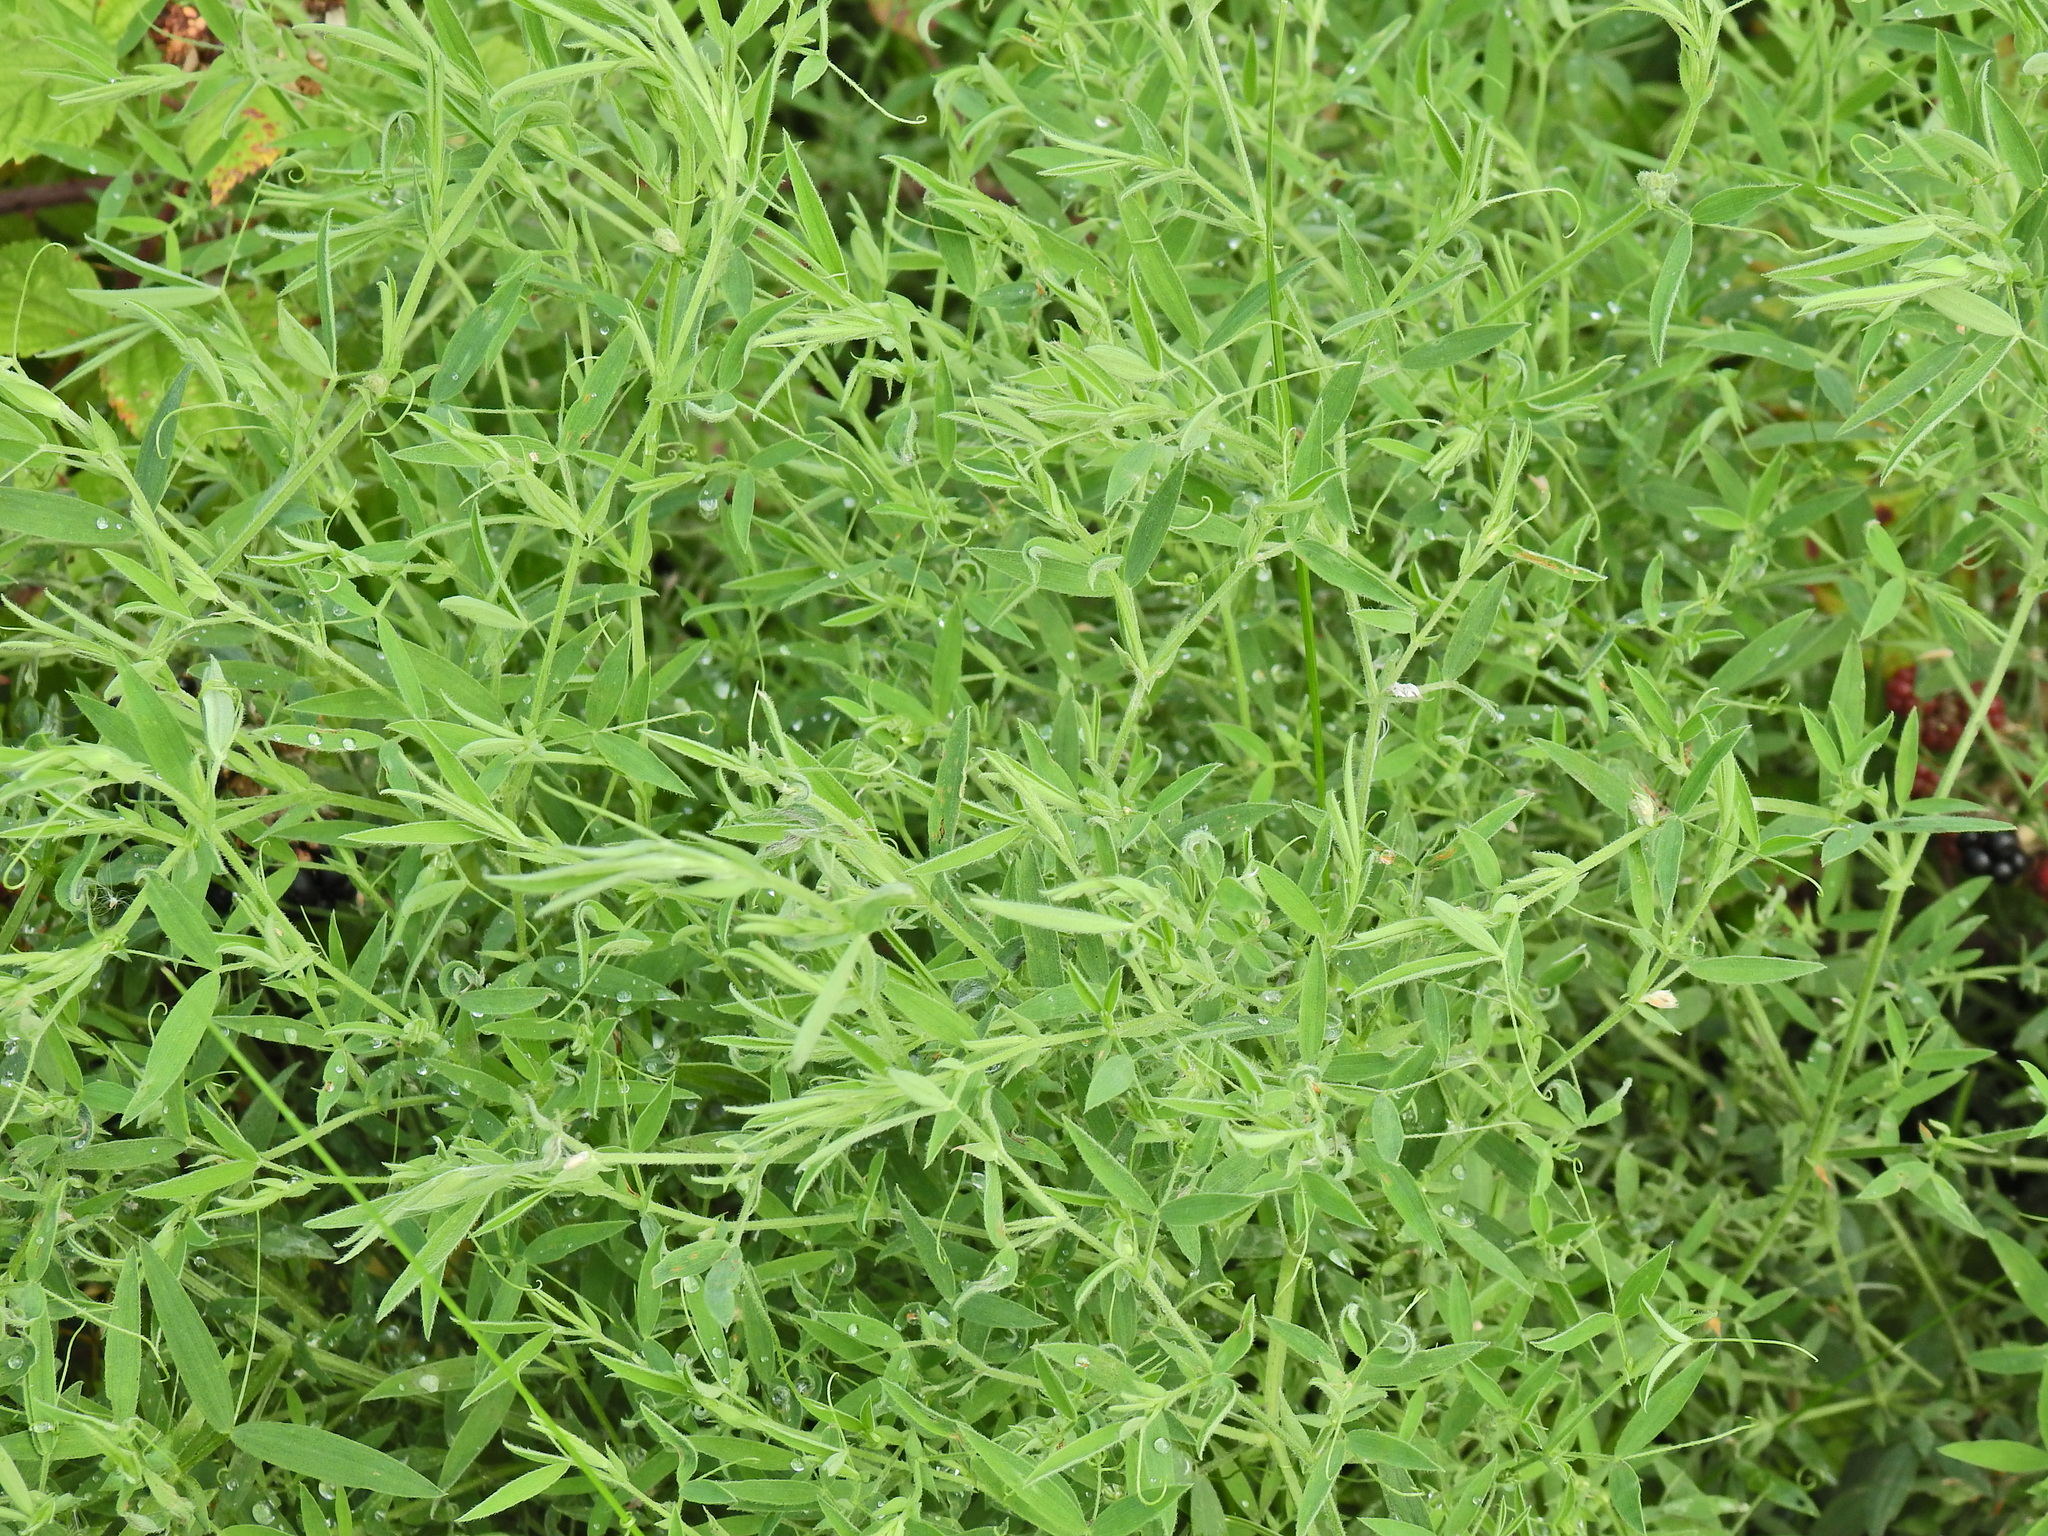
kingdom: Plantae
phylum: Tracheophyta
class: Magnoliopsida
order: Fabales
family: Fabaceae
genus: Lathyrus
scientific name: Lathyrus pratensis
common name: Meadow vetchling
